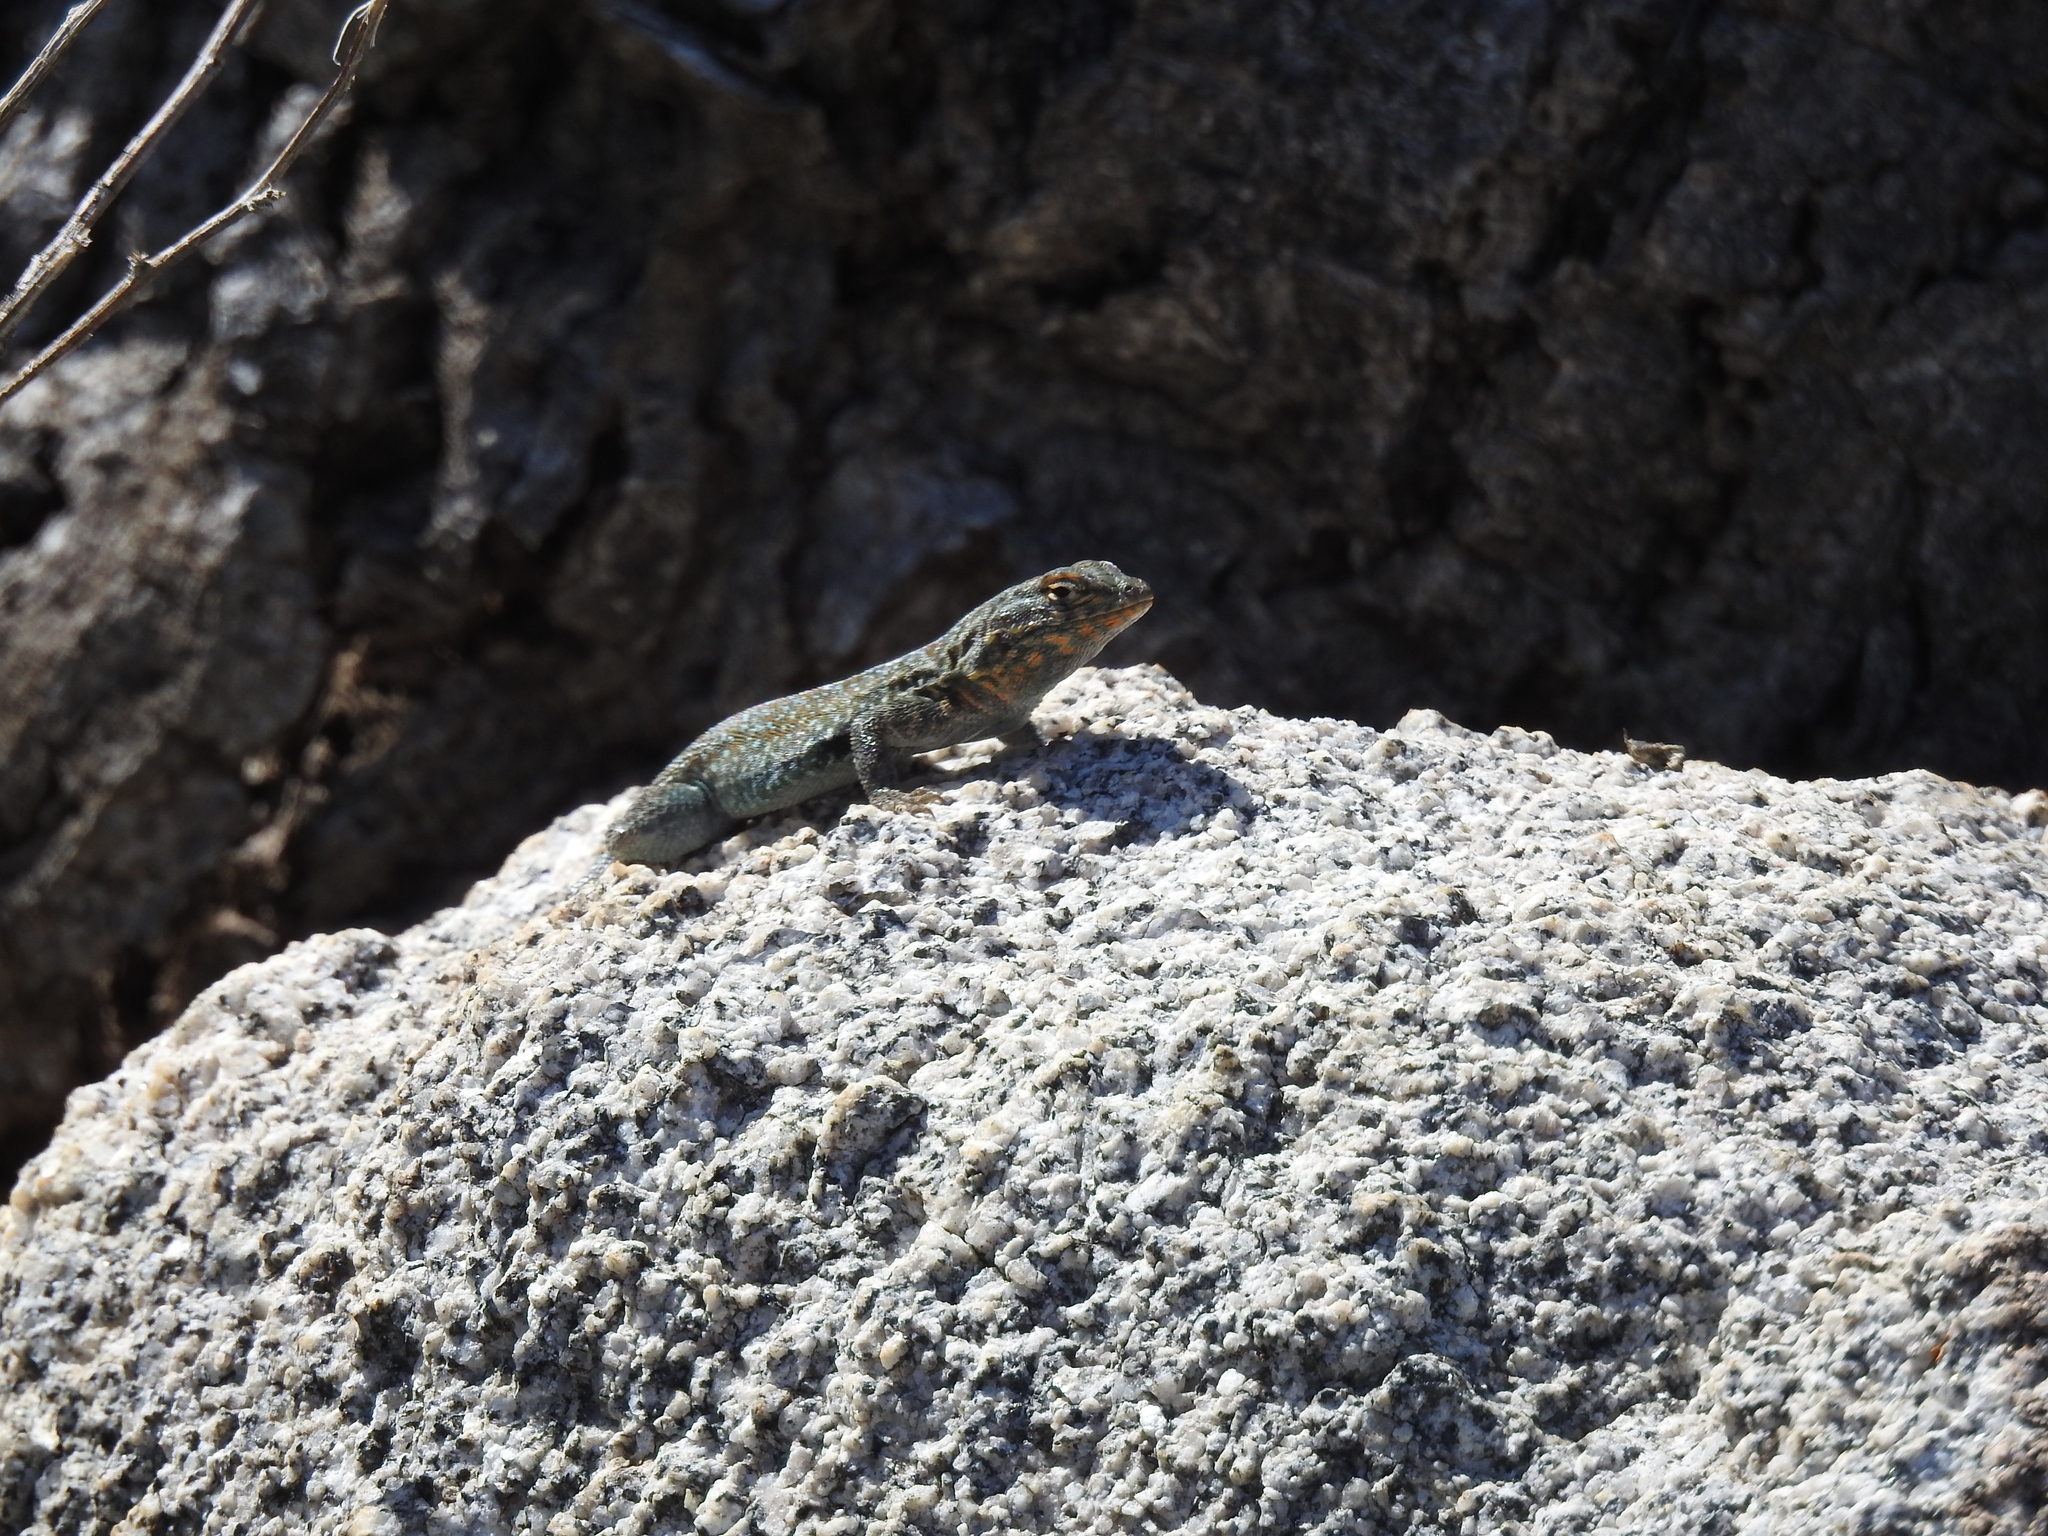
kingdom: Animalia
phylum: Chordata
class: Squamata
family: Phrynosomatidae
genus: Uta
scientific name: Uta stansburiana
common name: Side-blotched lizard
